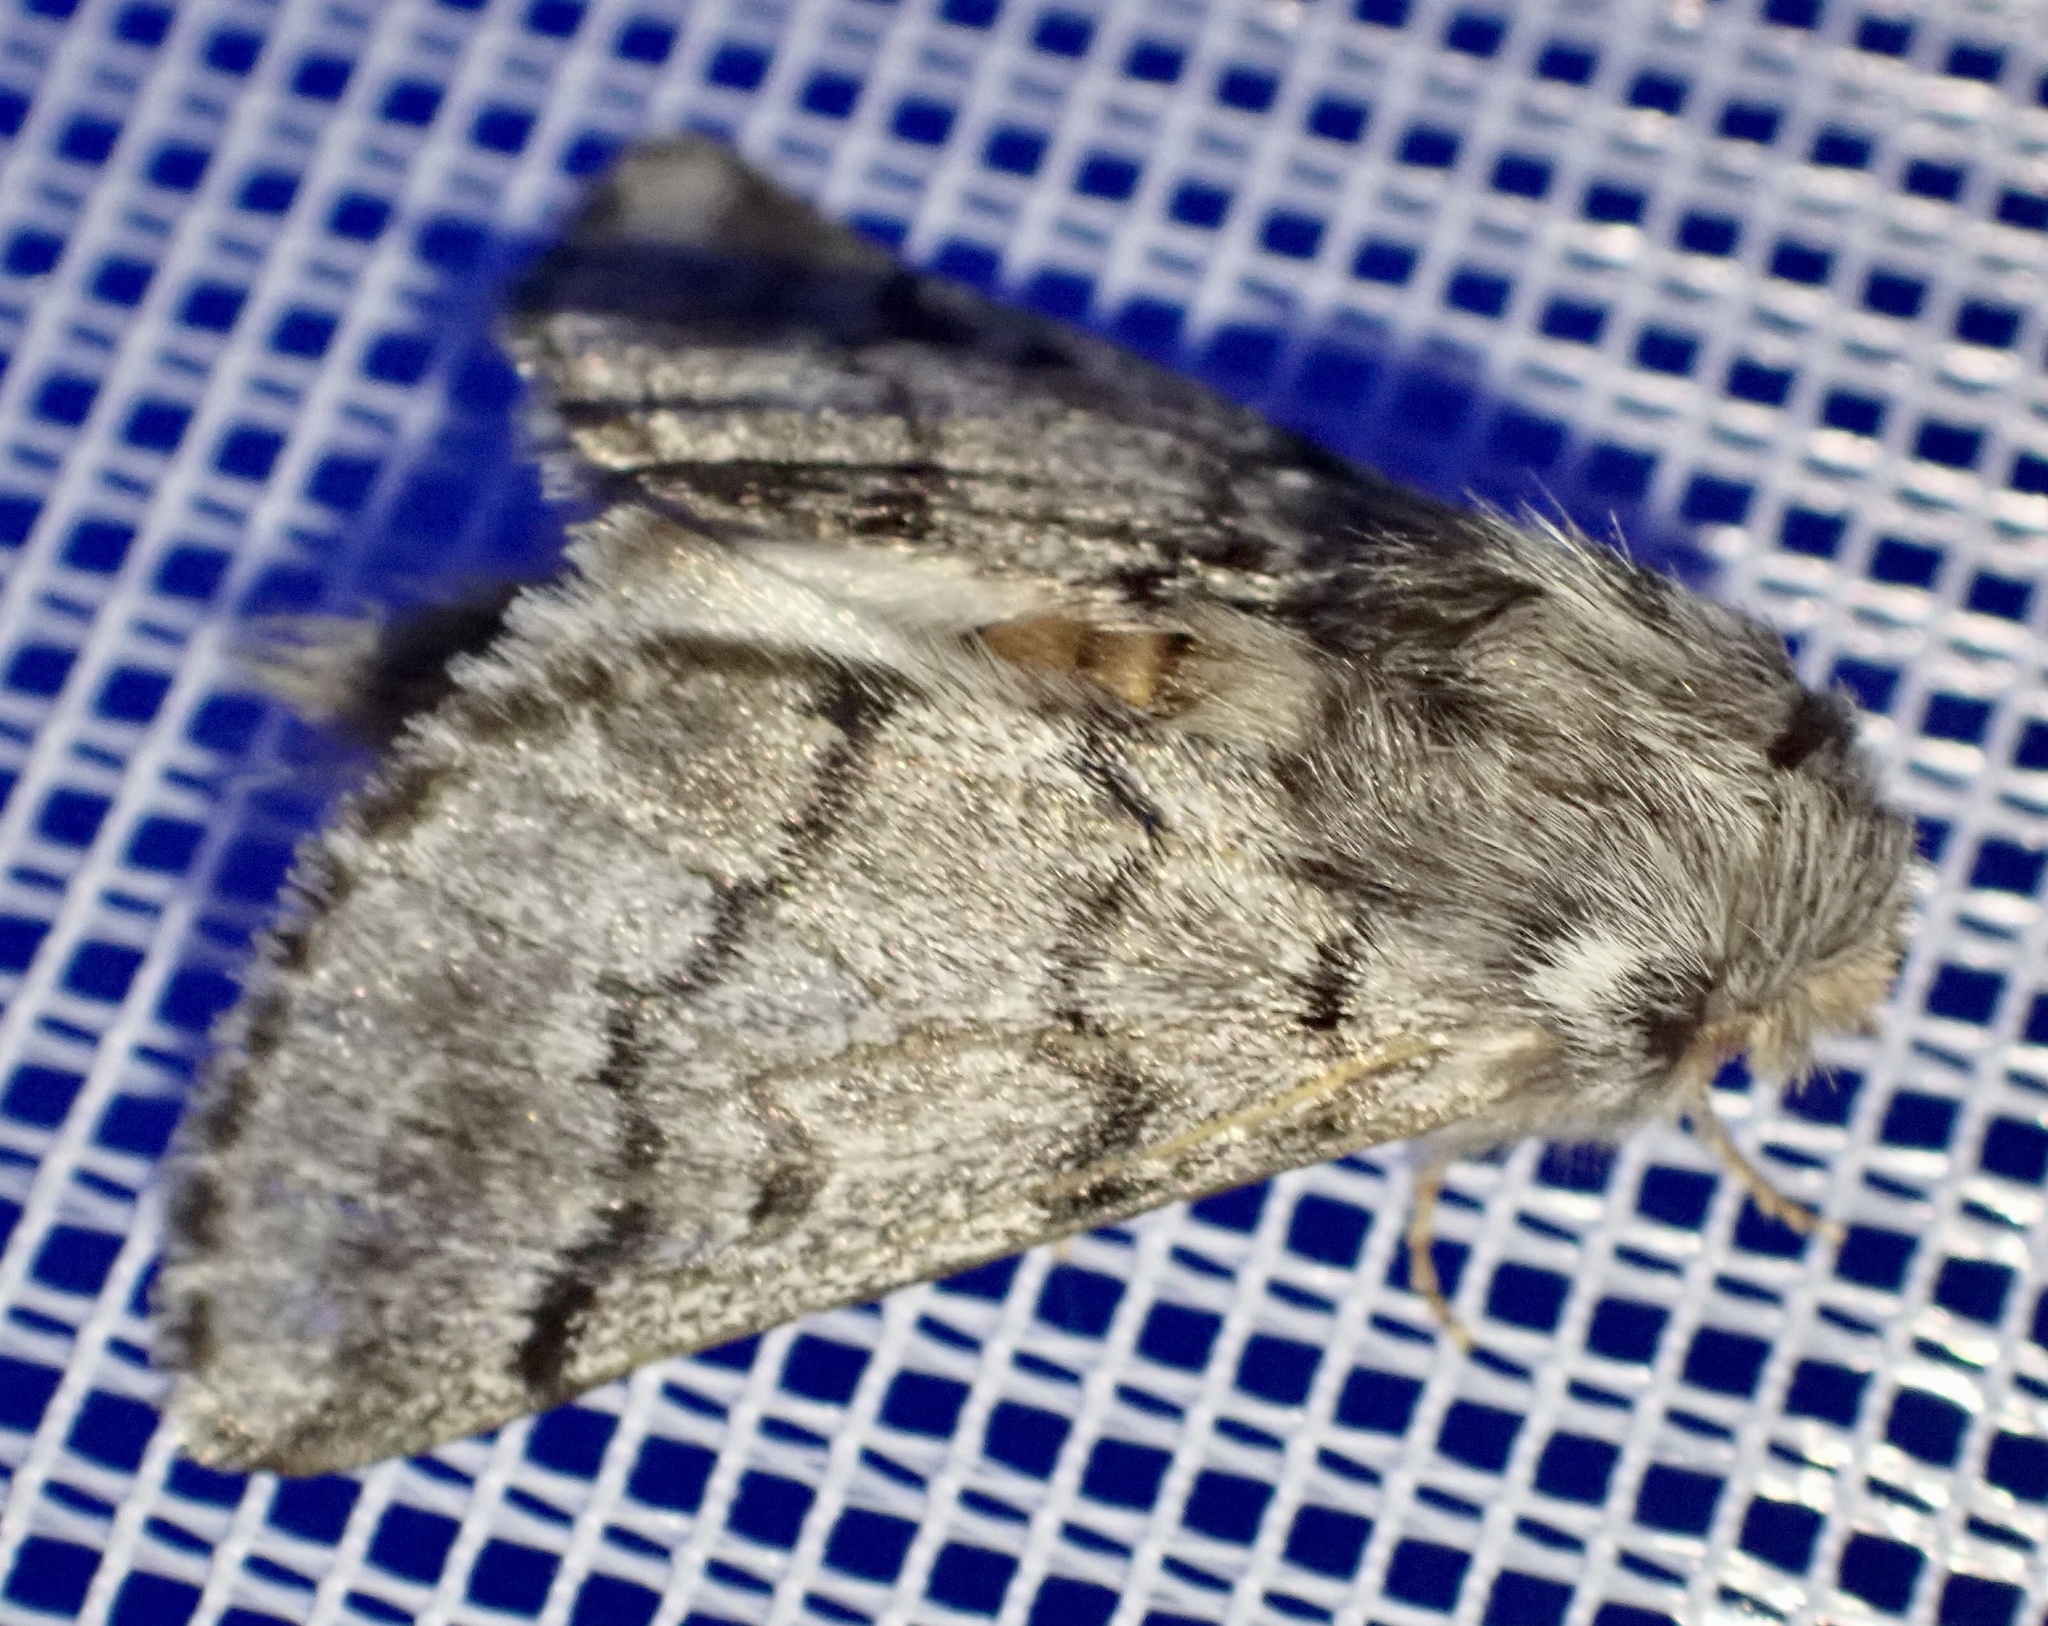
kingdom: Animalia
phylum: Arthropoda
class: Insecta
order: Lepidoptera
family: Notodontidae
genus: Thaumetopoea
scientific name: Thaumetopoea pityocampa
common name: Pine processionary
